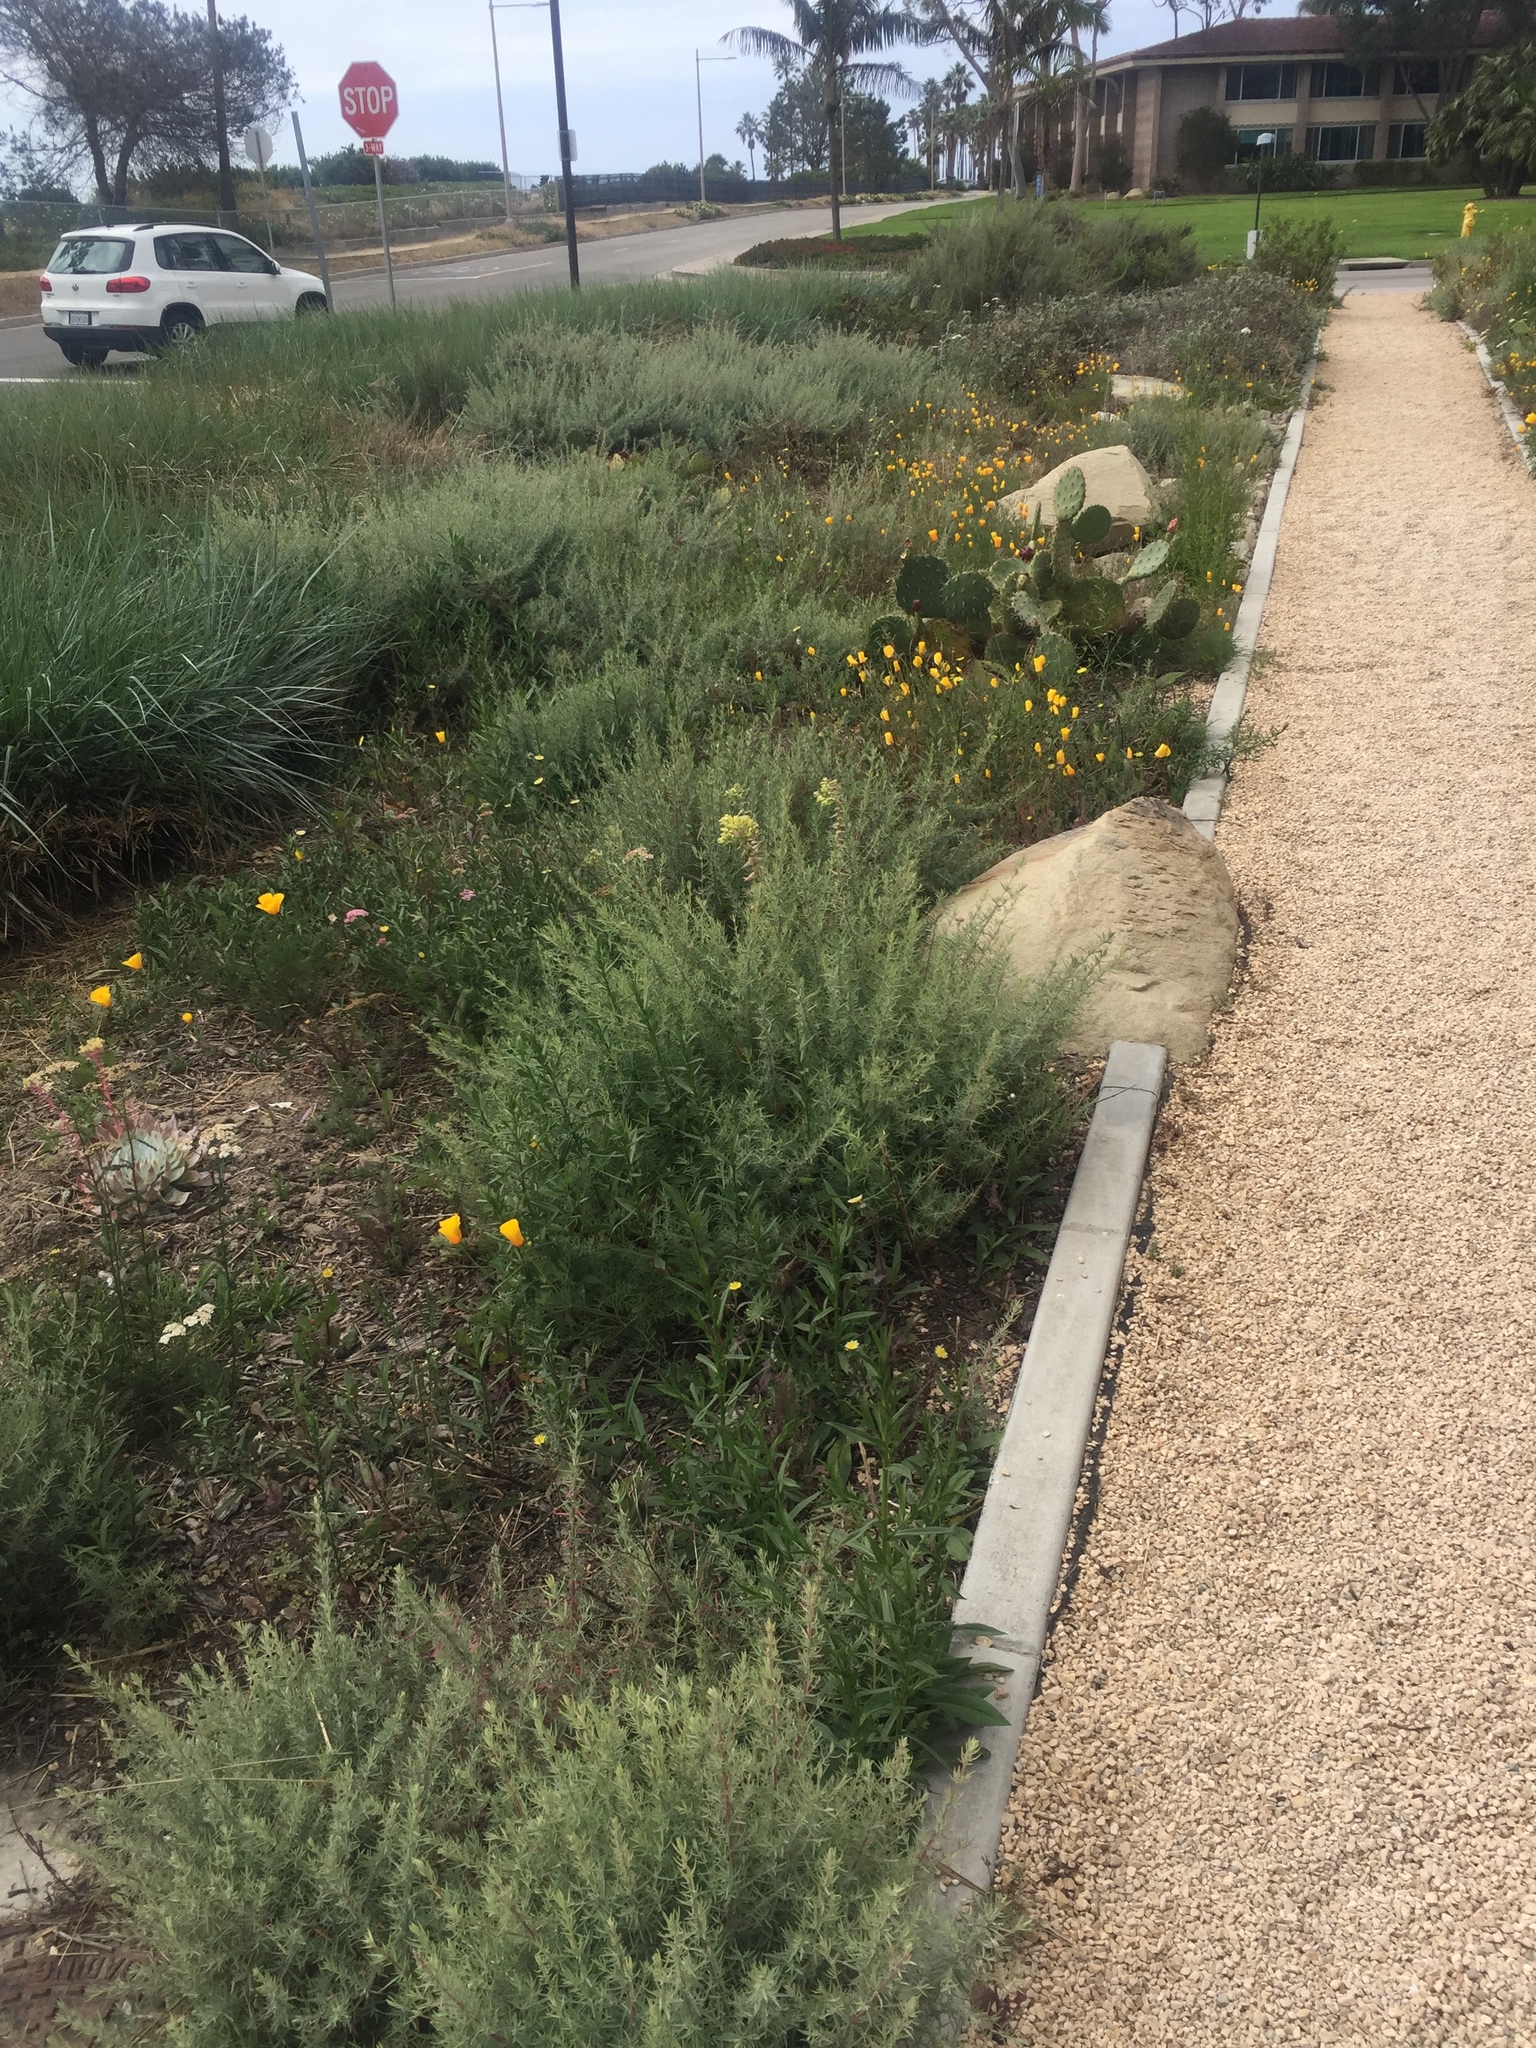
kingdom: Plantae
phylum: Tracheophyta
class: Magnoliopsida
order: Ranunculales
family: Papaveraceae
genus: Eschscholzia
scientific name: Eschscholzia californica
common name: California poppy
